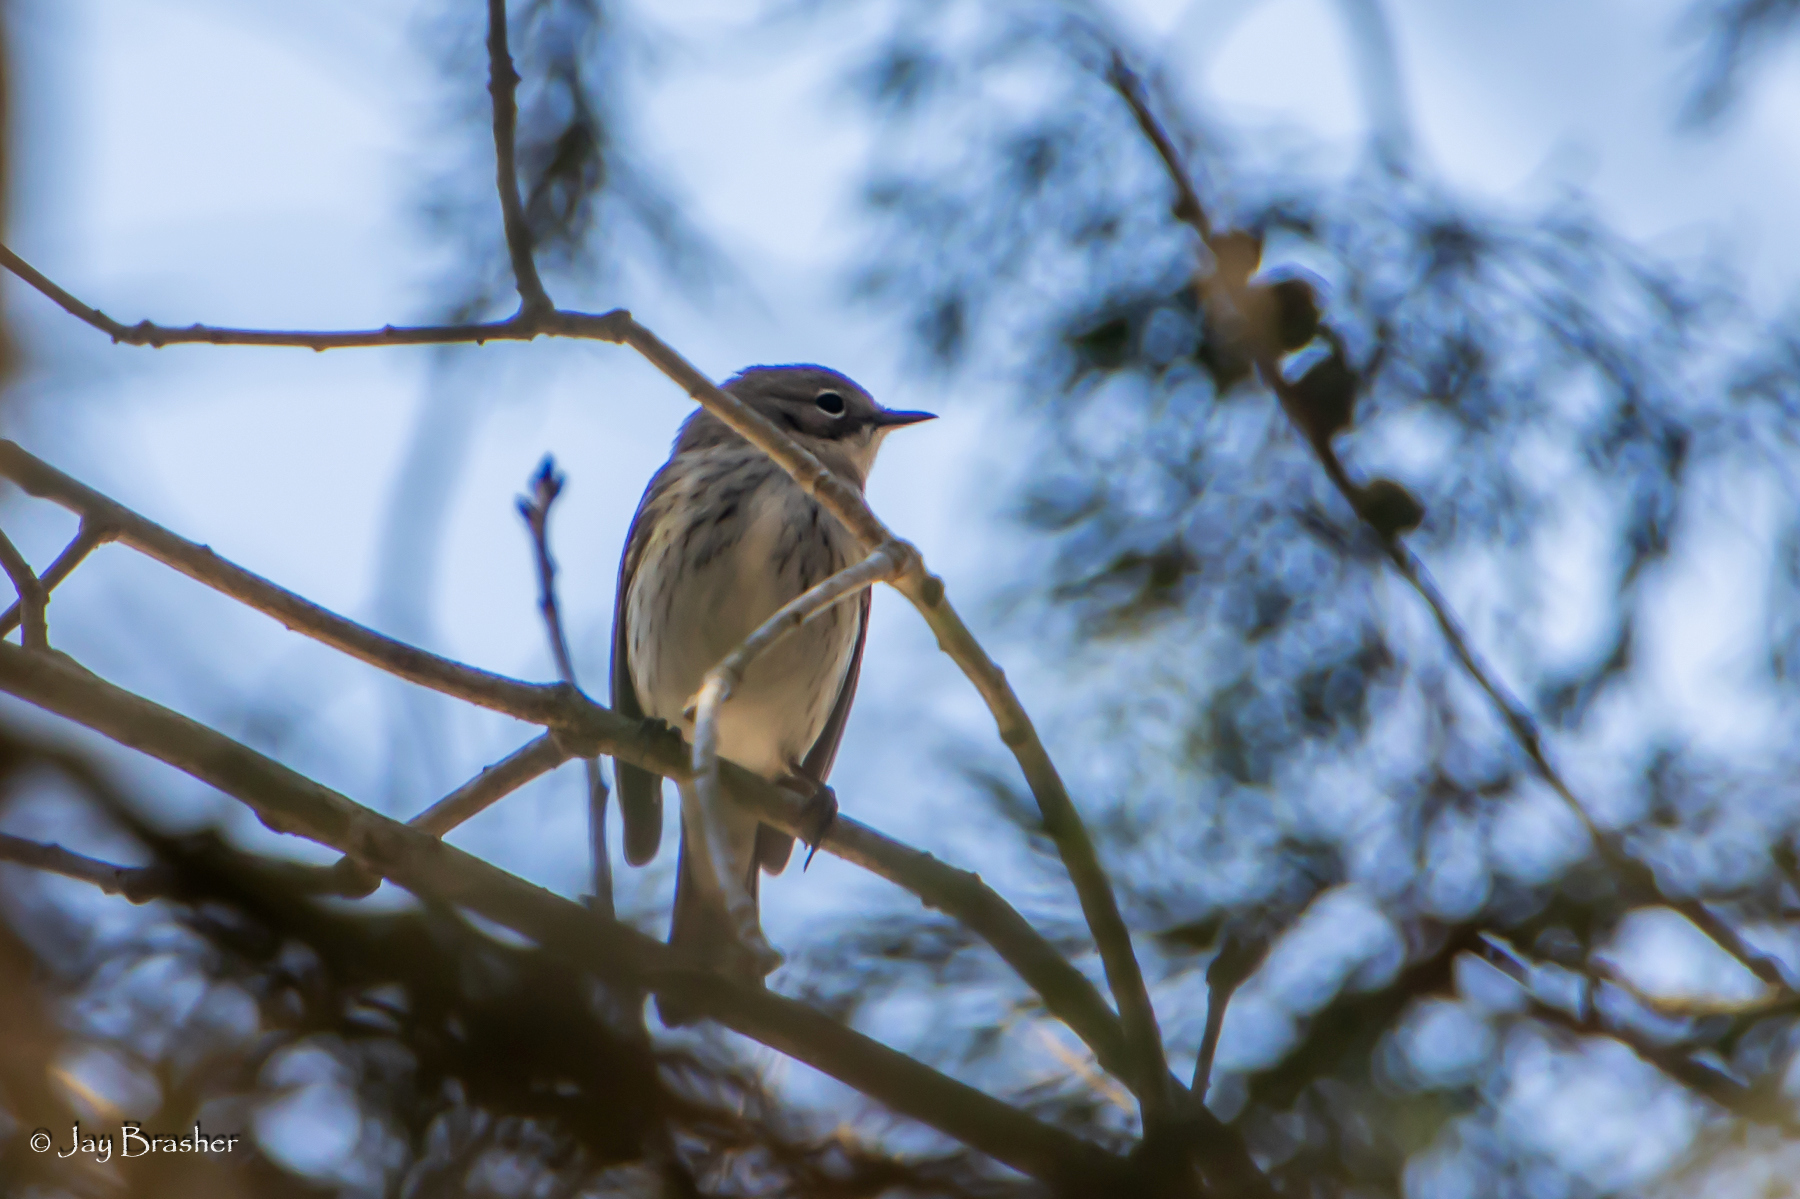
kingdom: Animalia
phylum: Chordata
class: Aves
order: Passeriformes
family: Parulidae
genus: Setophaga
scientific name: Setophaga coronata
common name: Myrtle warbler
